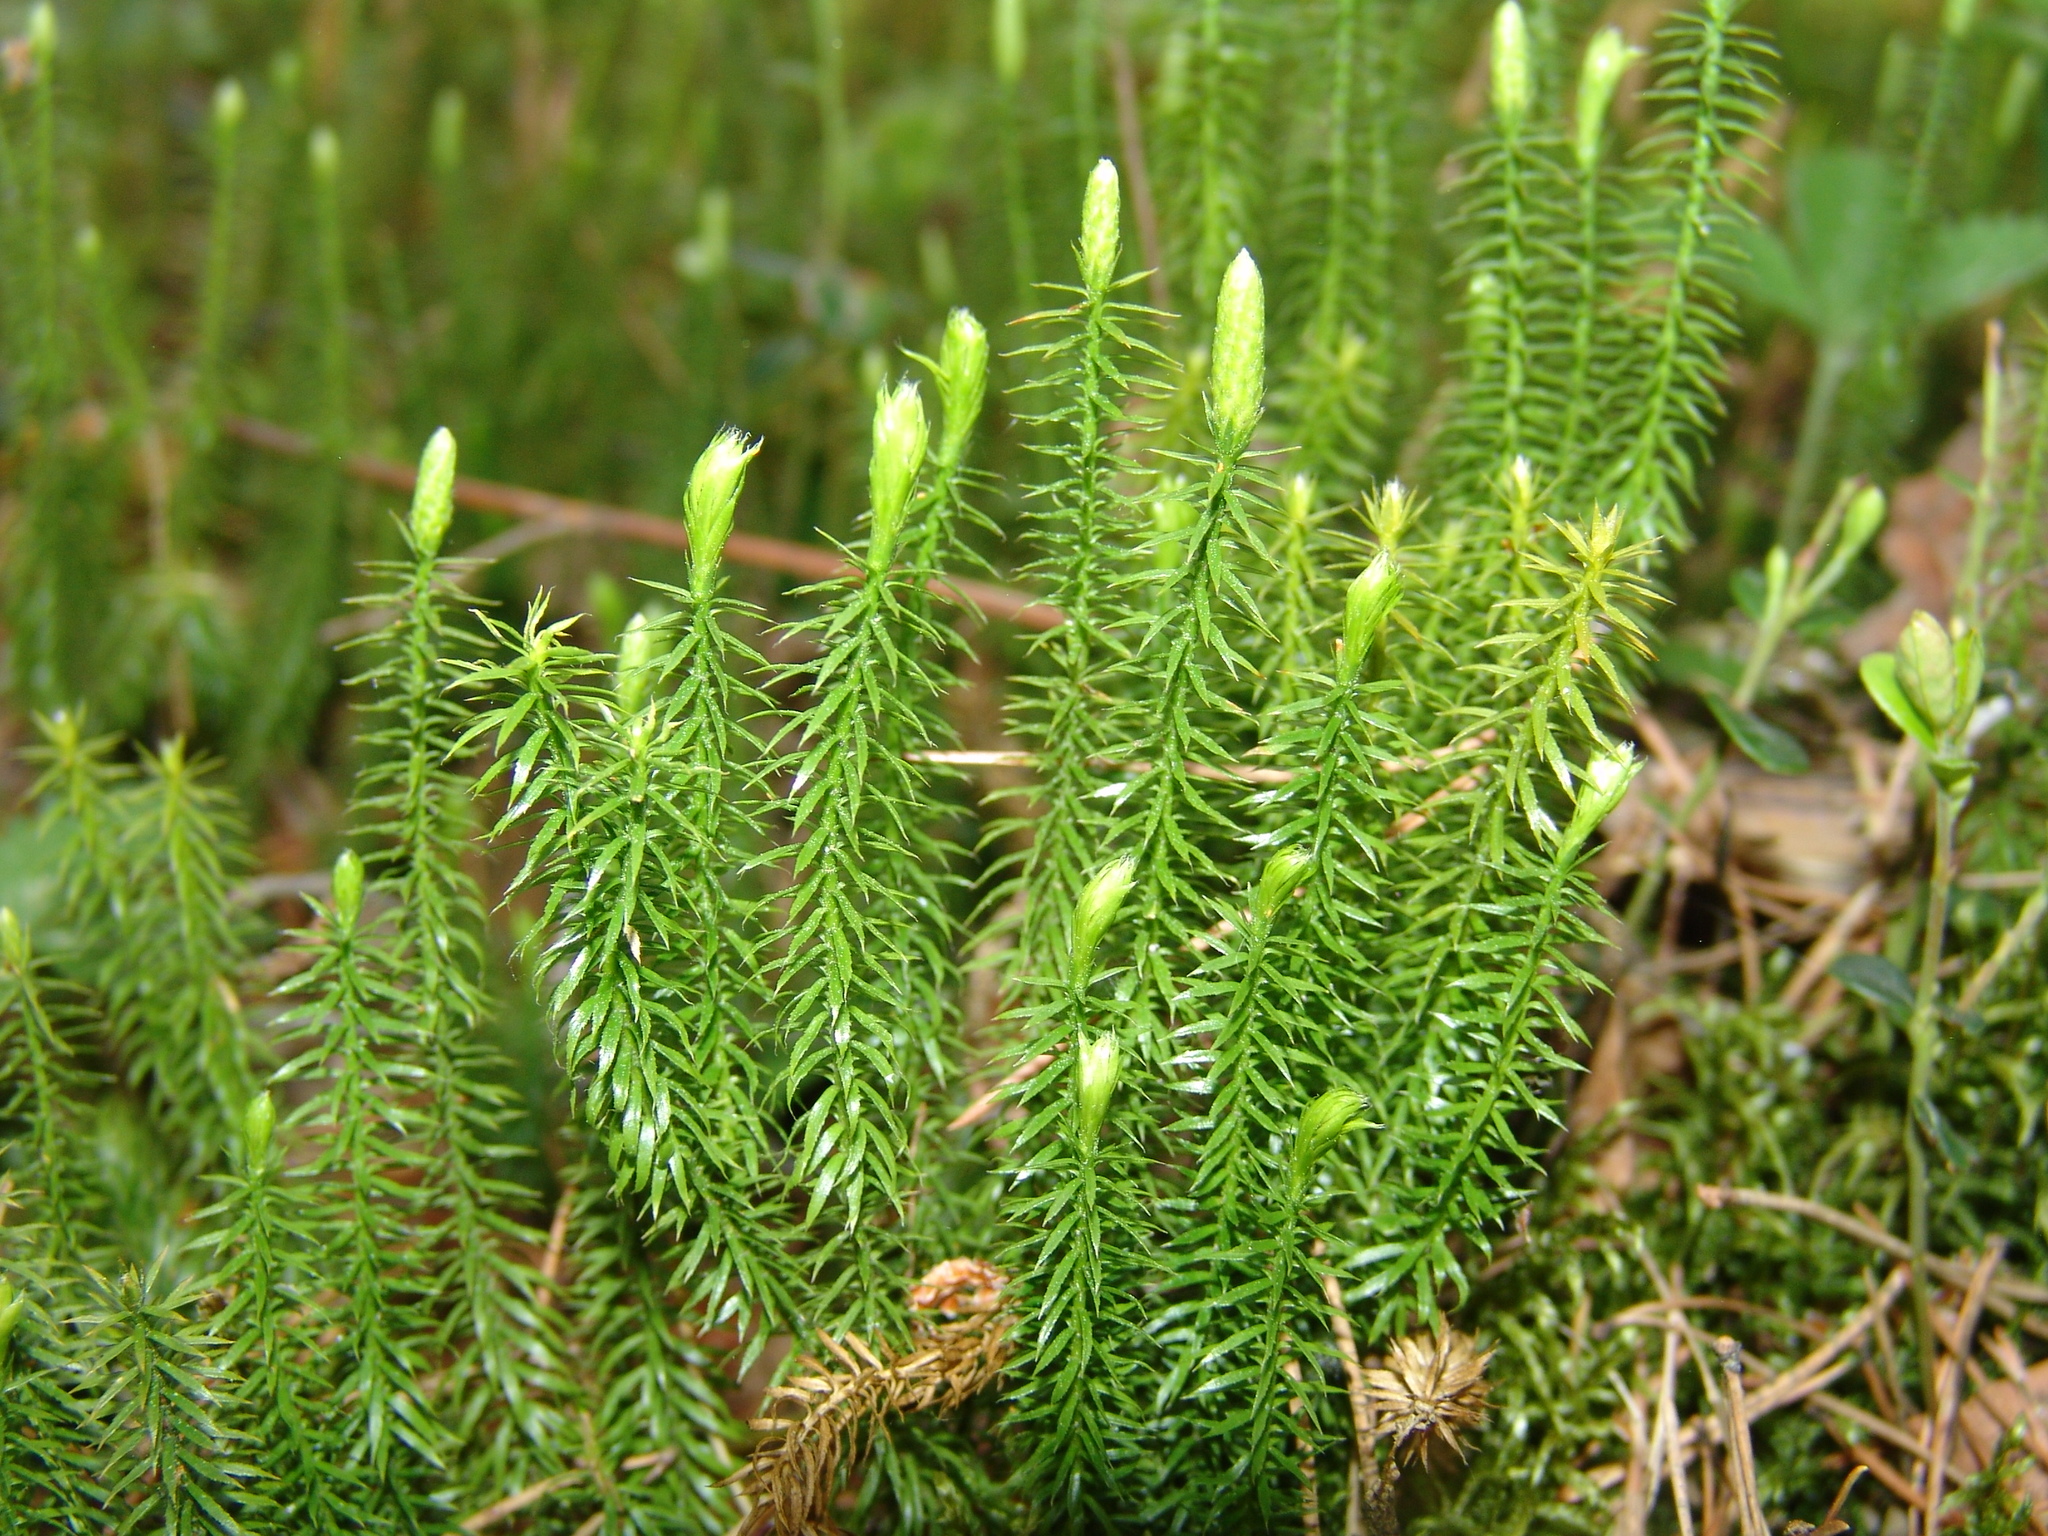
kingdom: Plantae
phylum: Tracheophyta
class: Lycopodiopsida
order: Lycopodiales
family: Lycopodiaceae
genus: Spinulum
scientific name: Spinulum annotinum
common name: Interrupted club-moss
